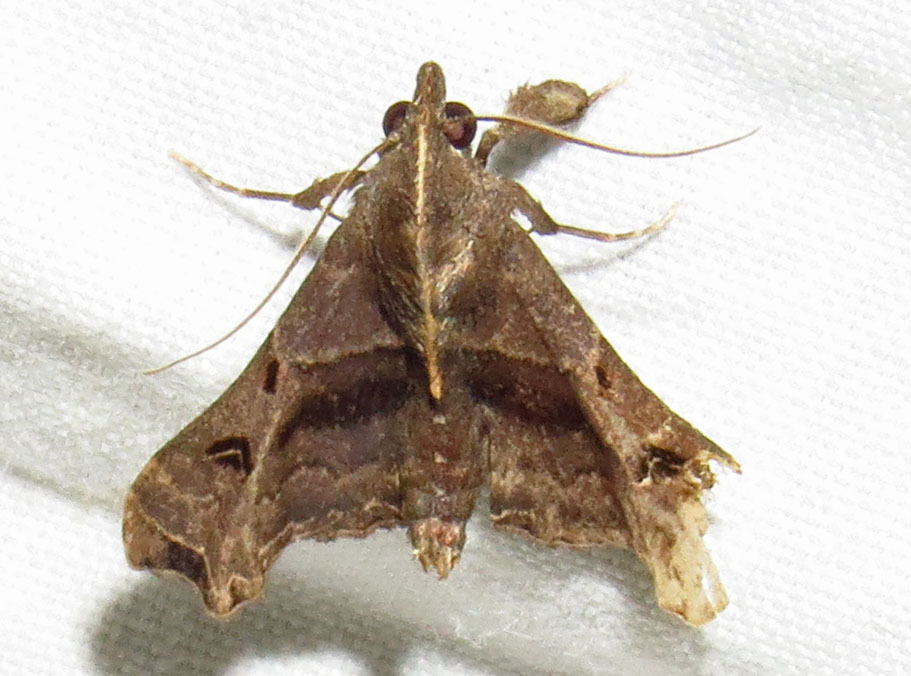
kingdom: Animalia
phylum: Arthropoda
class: Insecta
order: Lepidoptera
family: Erebidae
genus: Palthis
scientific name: Palthis asopialis
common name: Faint-spotted palthis moth
